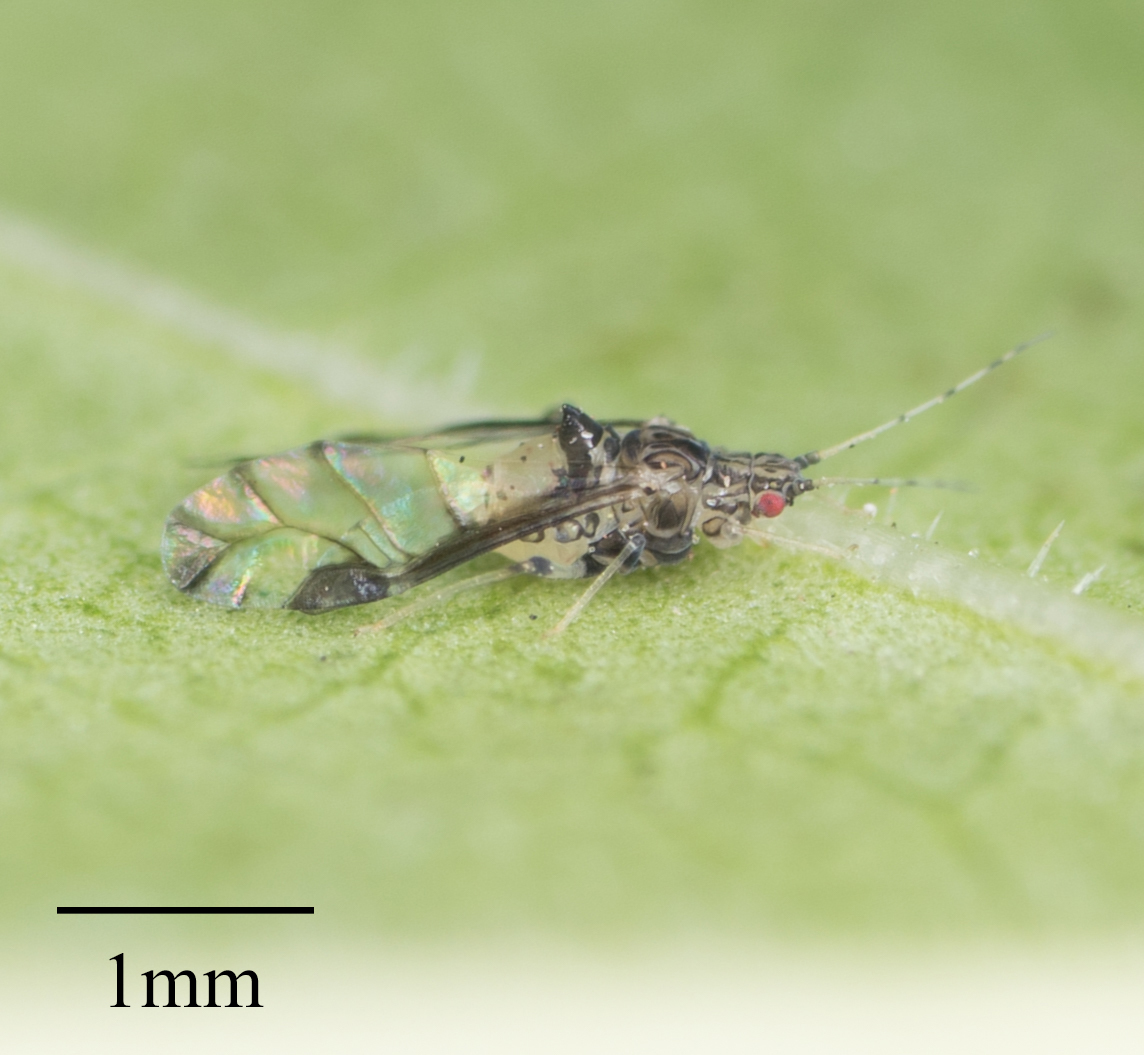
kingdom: Animalia
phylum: Arthropoda
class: Insecta
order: Hemiptera
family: Aphididae
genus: Sarucallis
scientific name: Sarucallis kahawaluokalani
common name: Crapemyrtle aphid
